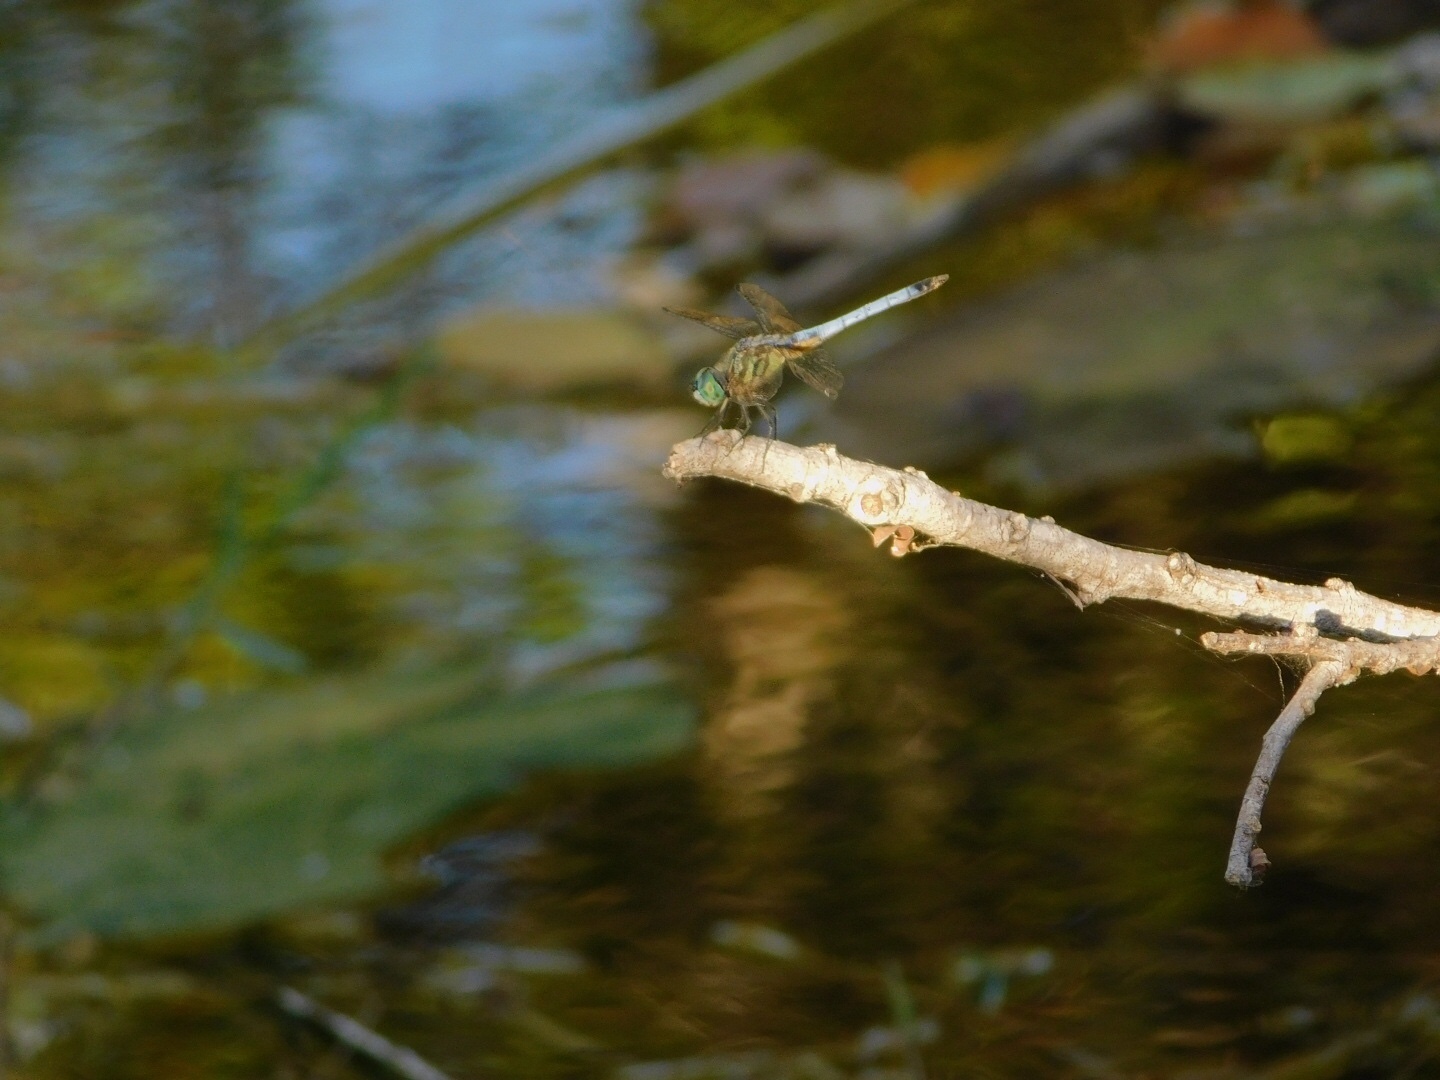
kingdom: Animalia
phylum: Arthropoda
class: Insecta
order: Odonata
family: Libellulidae
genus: Pachydiplax
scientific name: Pachydiplax longipennis
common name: Blue dasher
